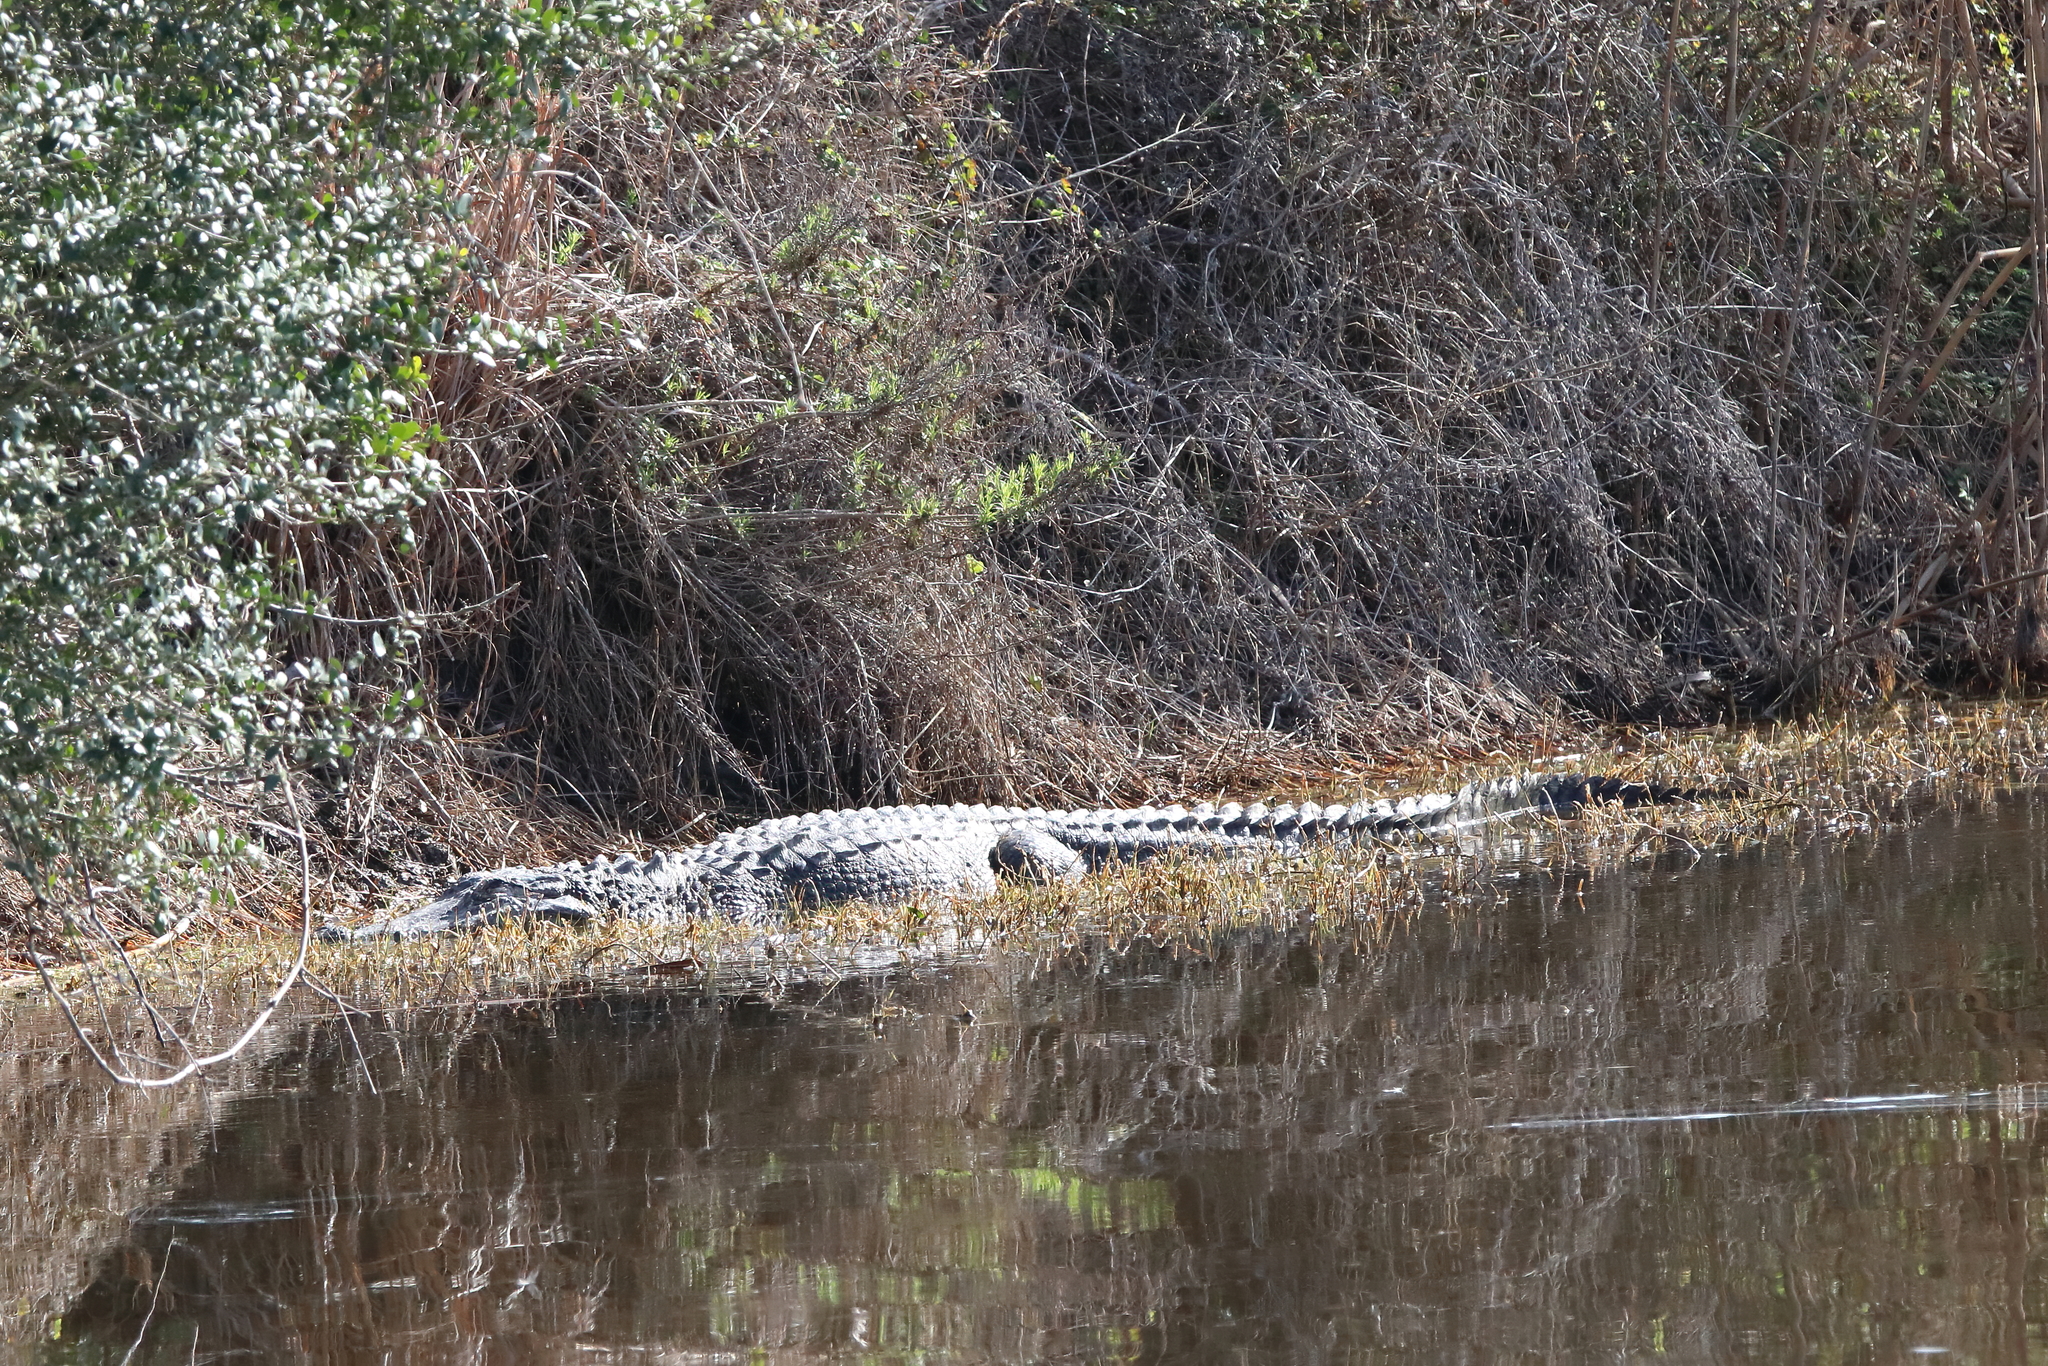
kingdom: Animalia
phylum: Chordata
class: Crocodylia
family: Alligatoridae
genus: Alligator
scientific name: Alligator mississippiensis
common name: American alligator
